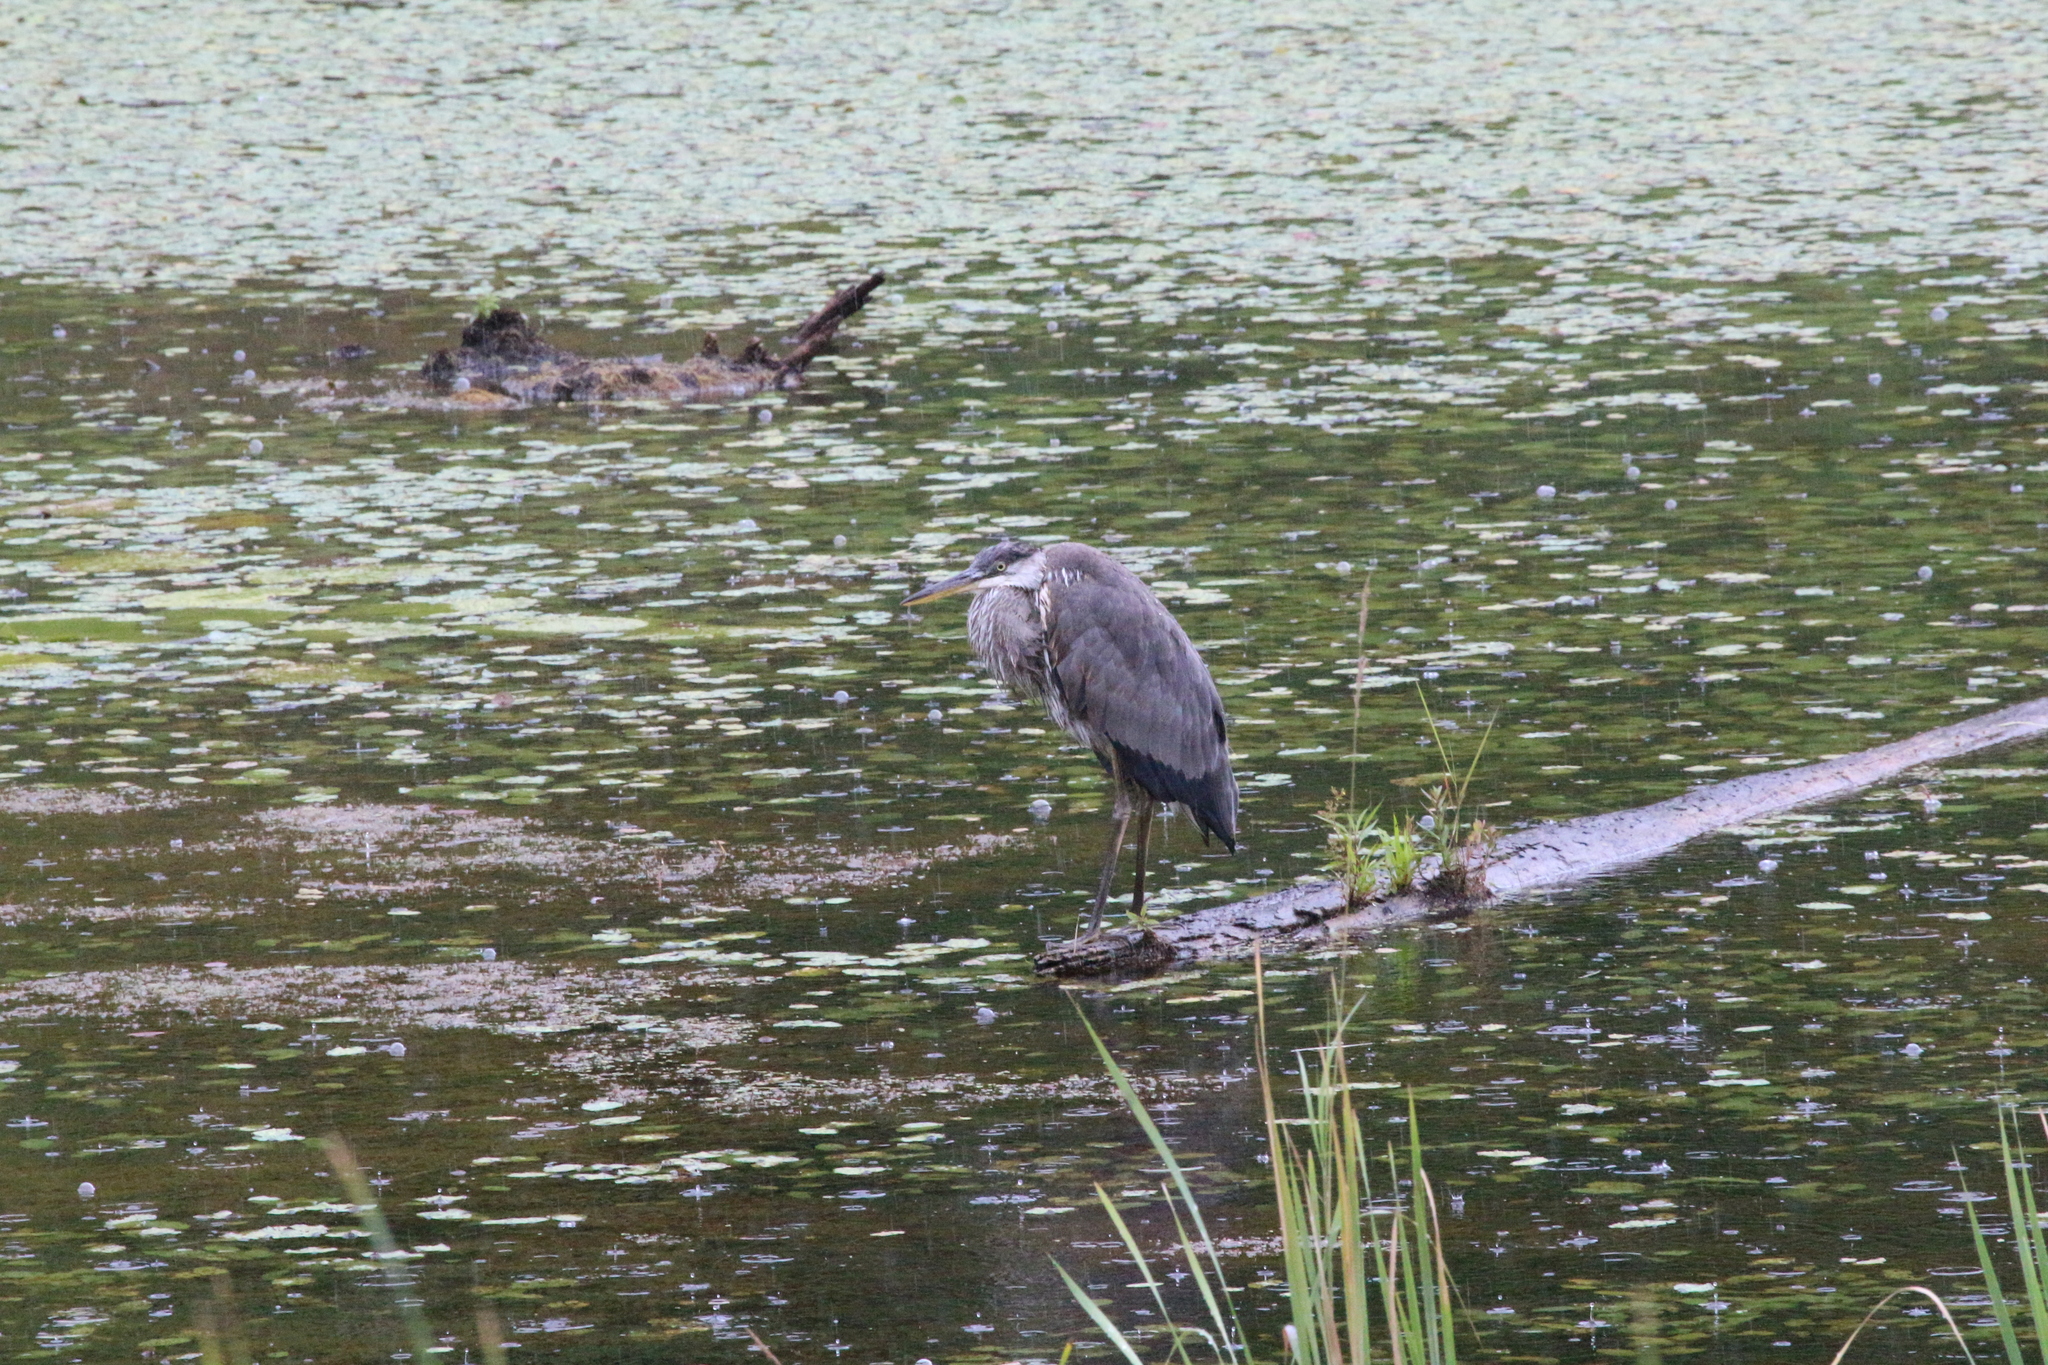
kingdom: Animalia
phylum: Chordata
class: Aves
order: Pelecaniformes
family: Ardeidae
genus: Ardea
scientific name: Ardea herodias
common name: Great blue heron
